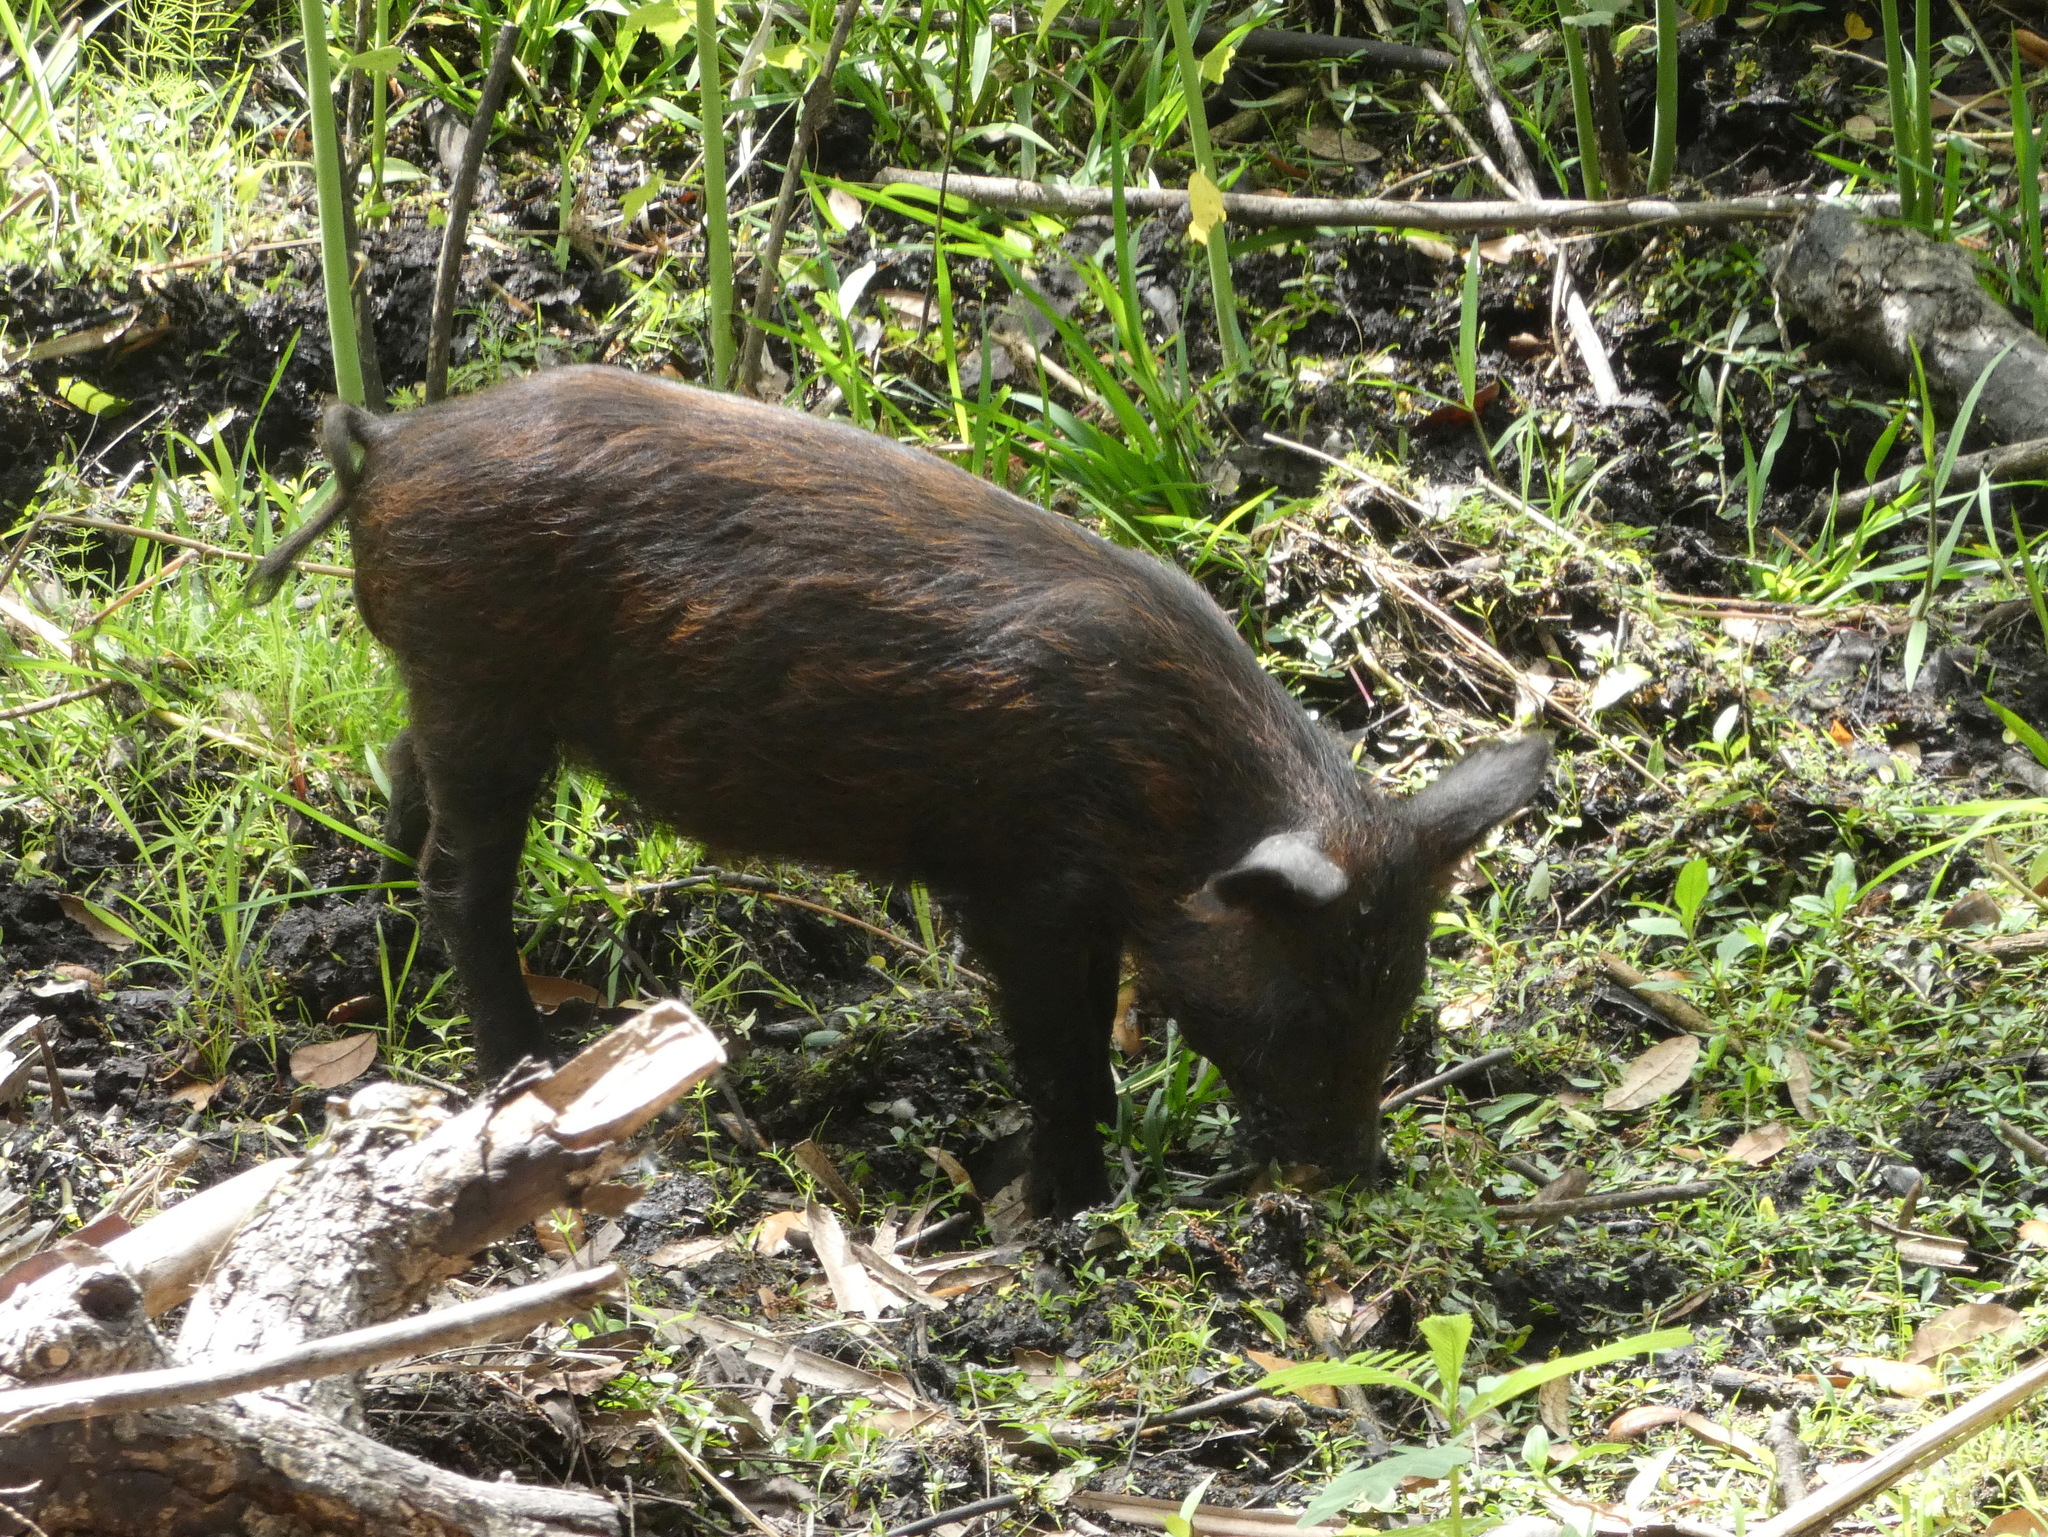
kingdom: Animalia
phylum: Chordata
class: Mammalia
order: Artiodactyla
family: Suidae
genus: Sus
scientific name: Sus scrofa
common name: Wild boar
